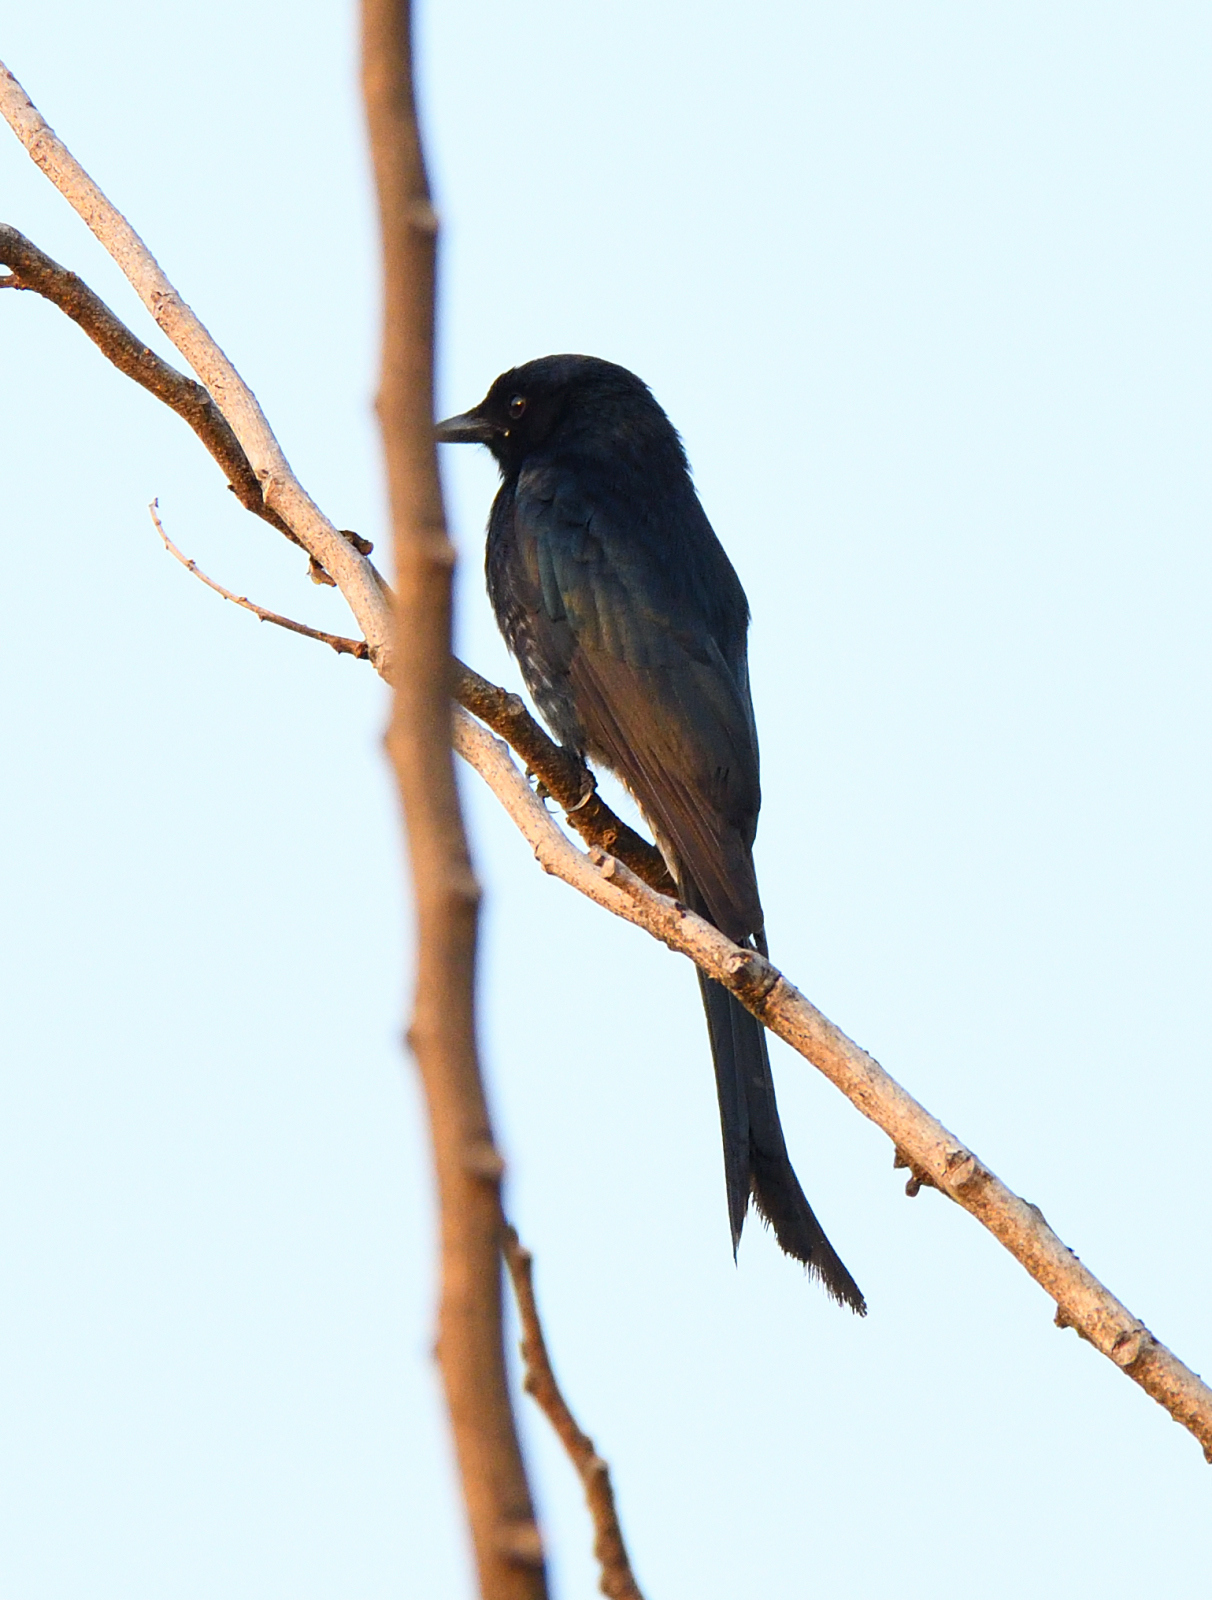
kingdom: Animalia
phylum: Chordata
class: Aves
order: Passeriformes
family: Dicruridae
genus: Dicrurus
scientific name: Dicrurus macrocercus
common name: Black drongo
